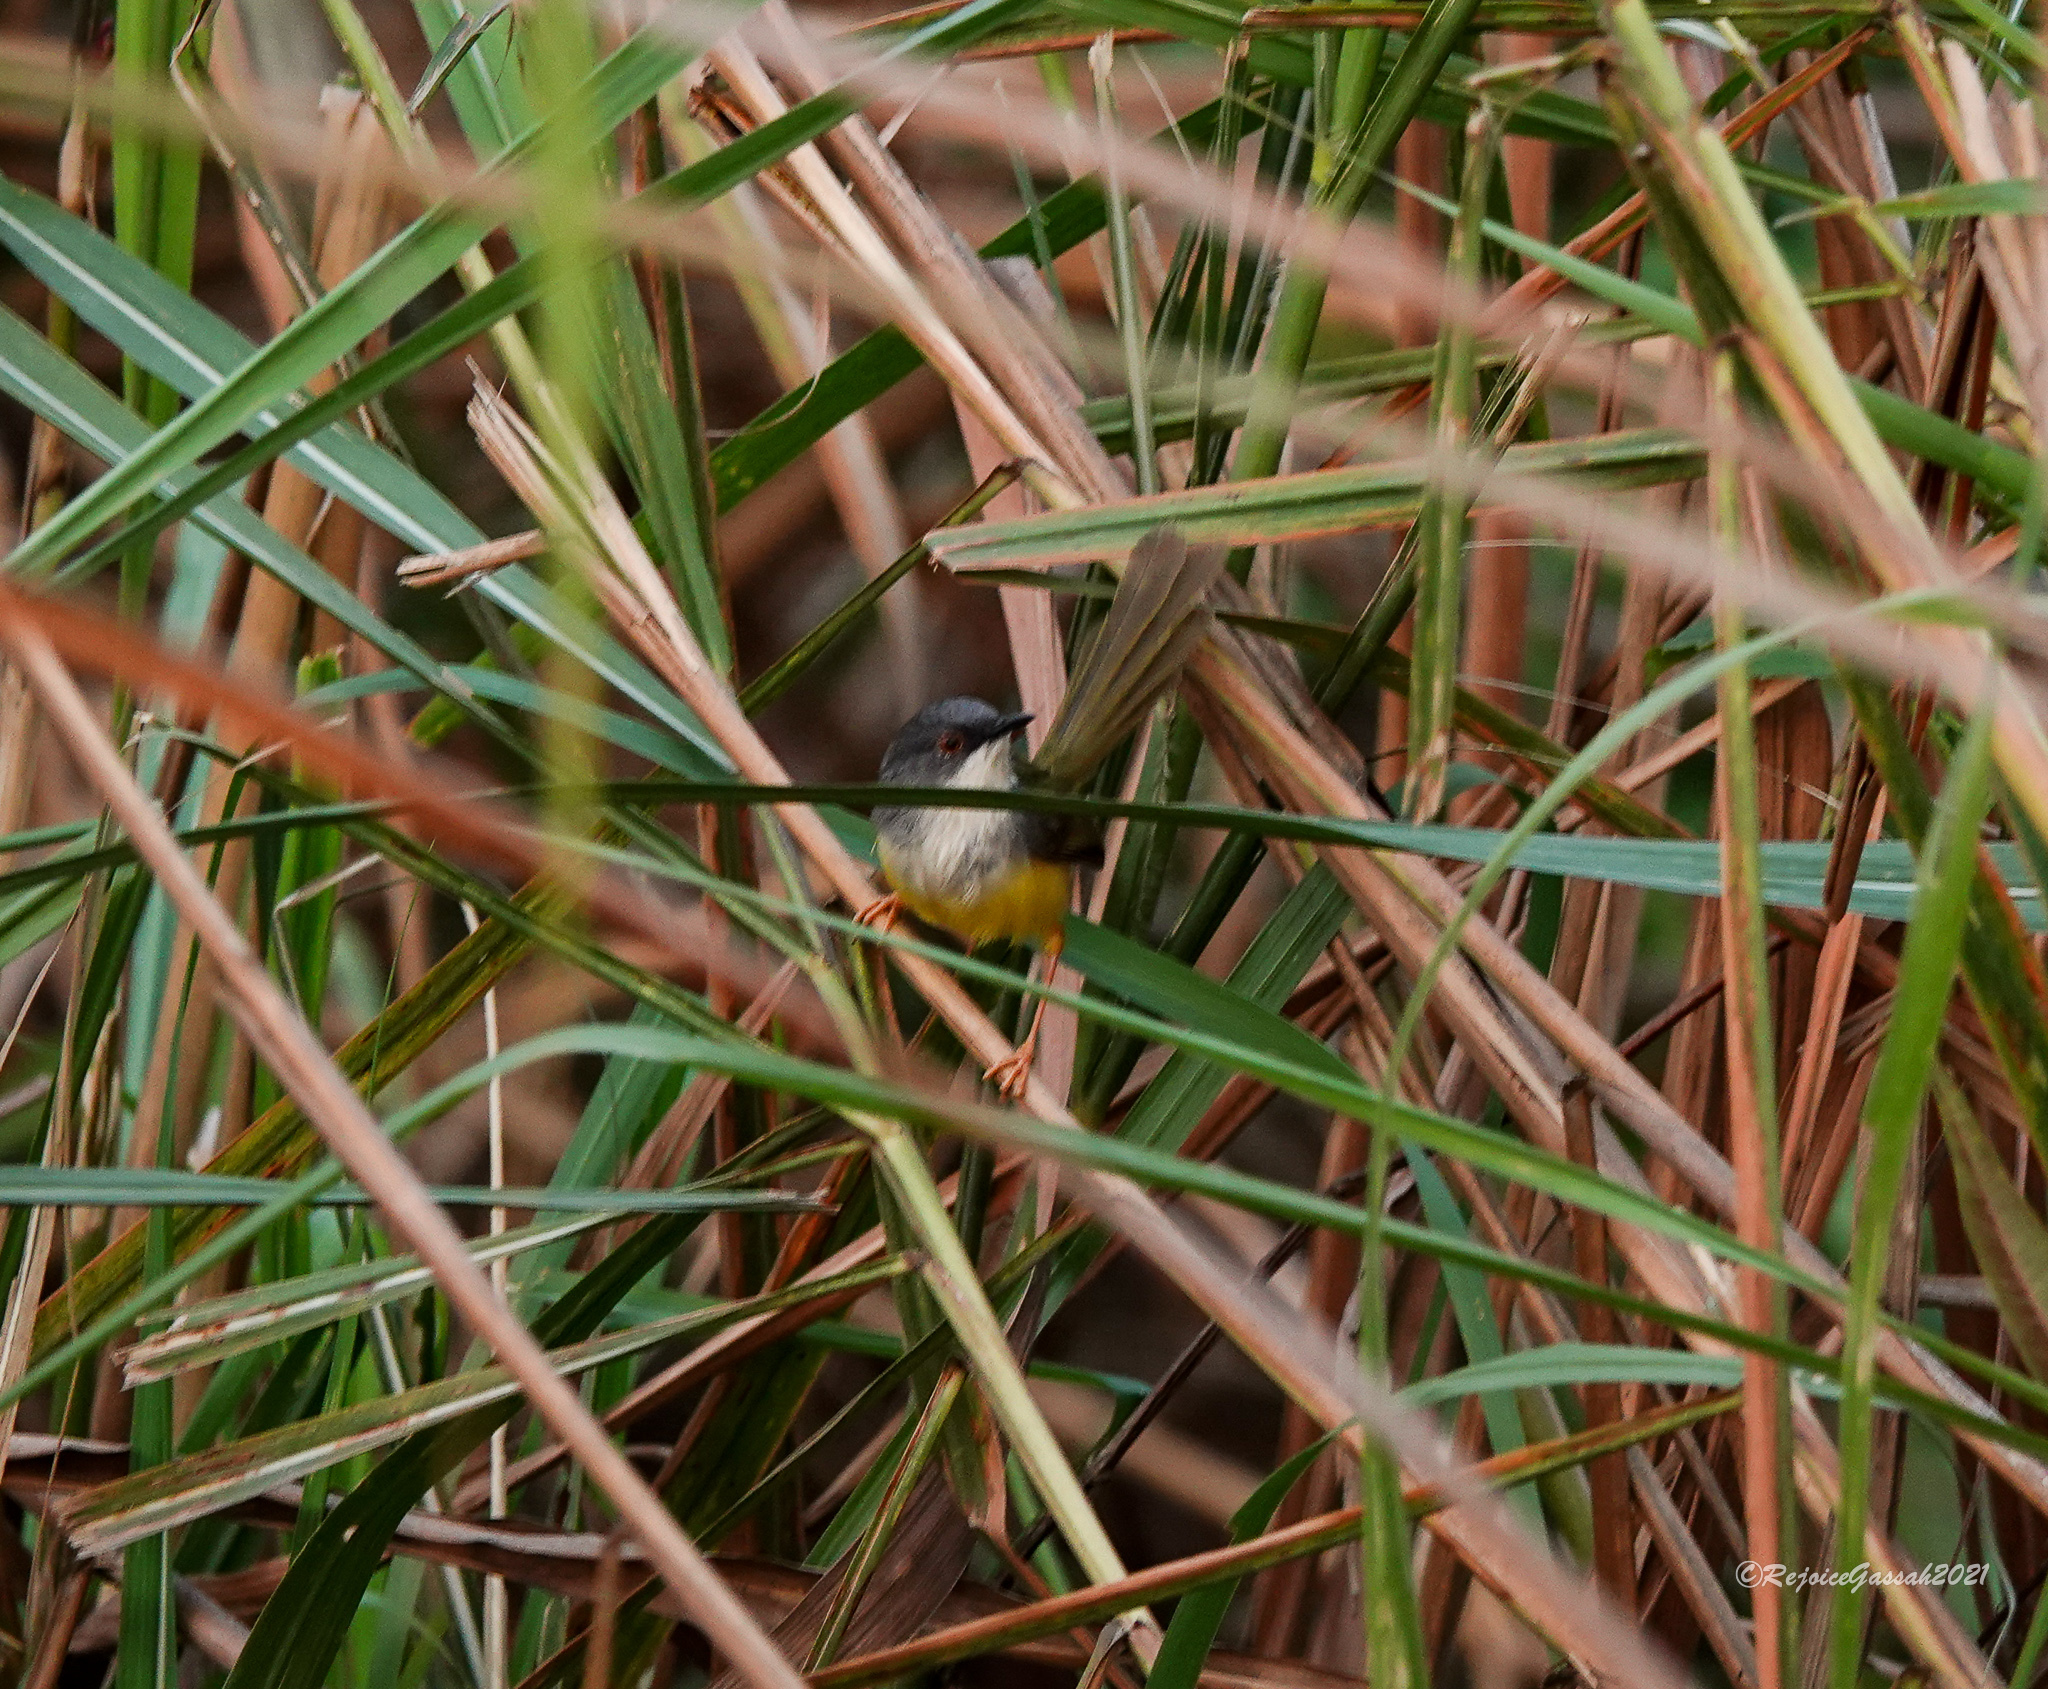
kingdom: Animalia
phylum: Chordata
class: Aves
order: Passeriformes
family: Cisticolidae
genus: Prinia
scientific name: Prinia flaviventris
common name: Yellow-bellied prinia
